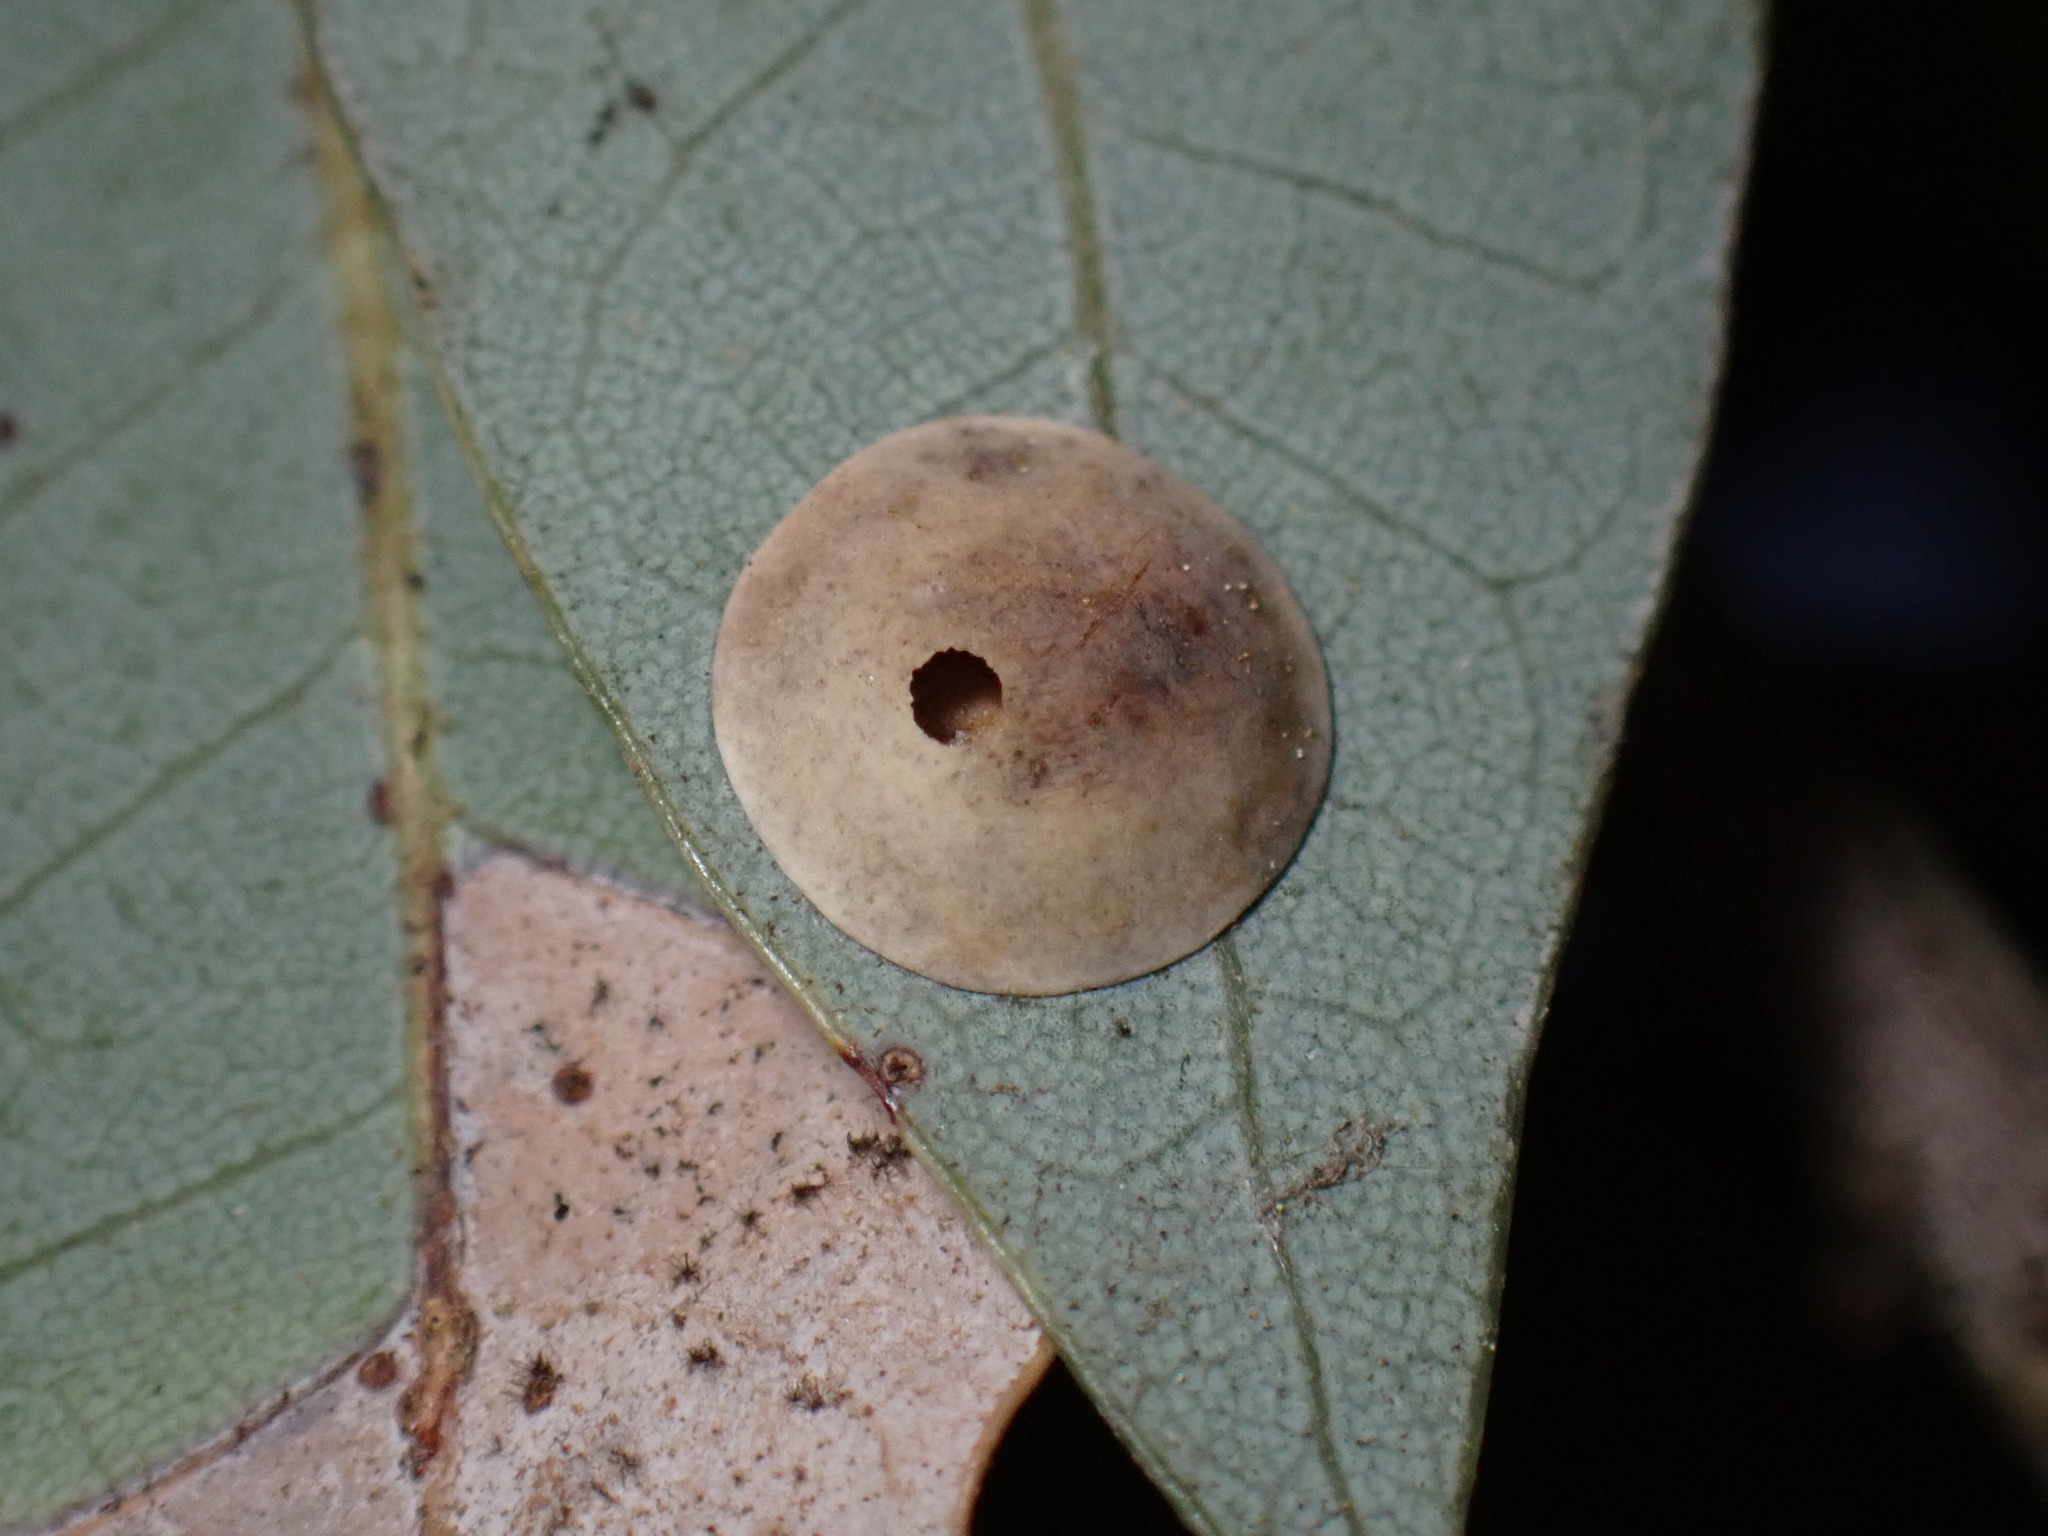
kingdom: Animalia
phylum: Arthropoda
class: Insecta
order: Hymenoptera
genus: Paracraspis
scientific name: Paracraspis
